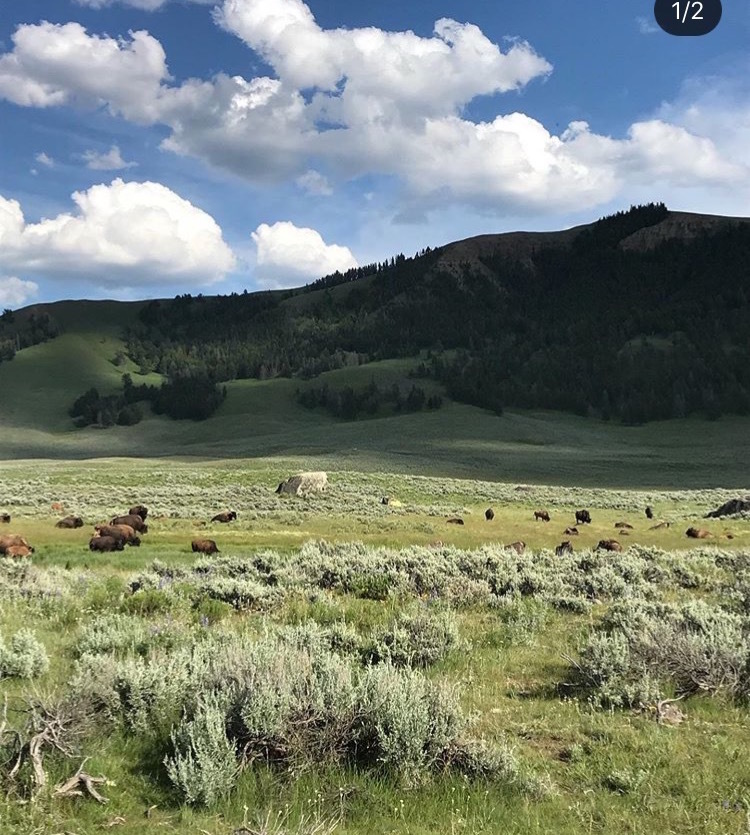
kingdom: Animalia
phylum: Chordata
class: Mammalia
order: Artiodactyla
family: Bovidae
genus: Bison
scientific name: Bison bison
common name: American bison
